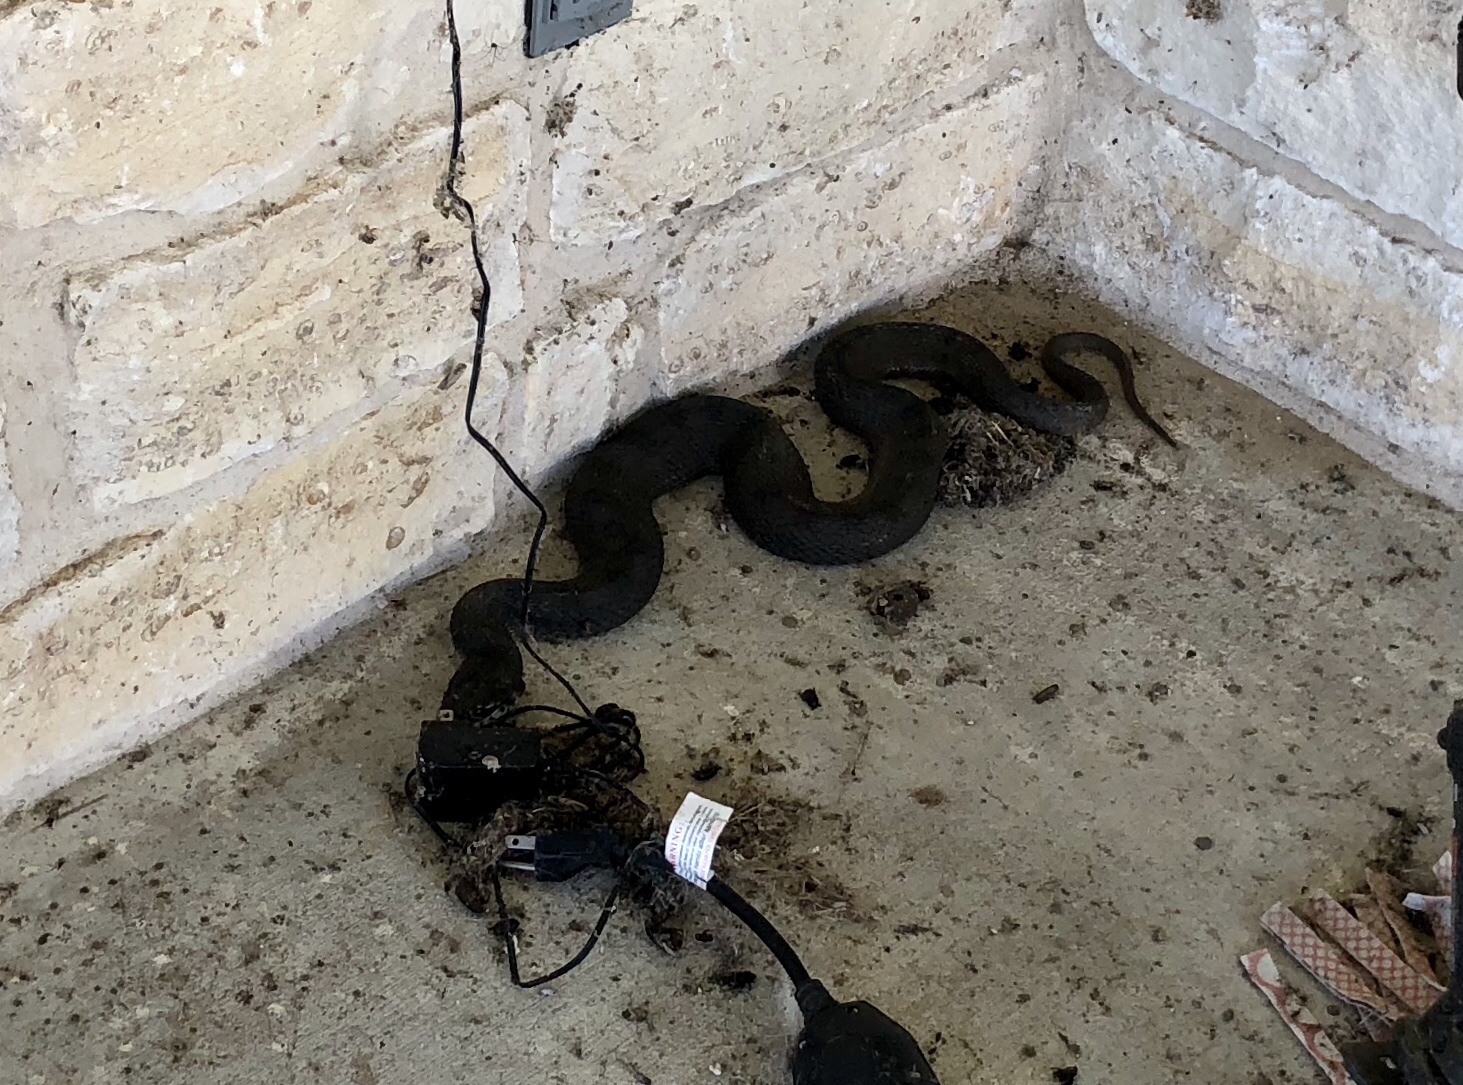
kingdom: Animalia
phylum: Chordata
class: Squamata
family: Colubridae
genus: Nerodia
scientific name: Nerodia erythrogaster
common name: Plainbelly water snake
